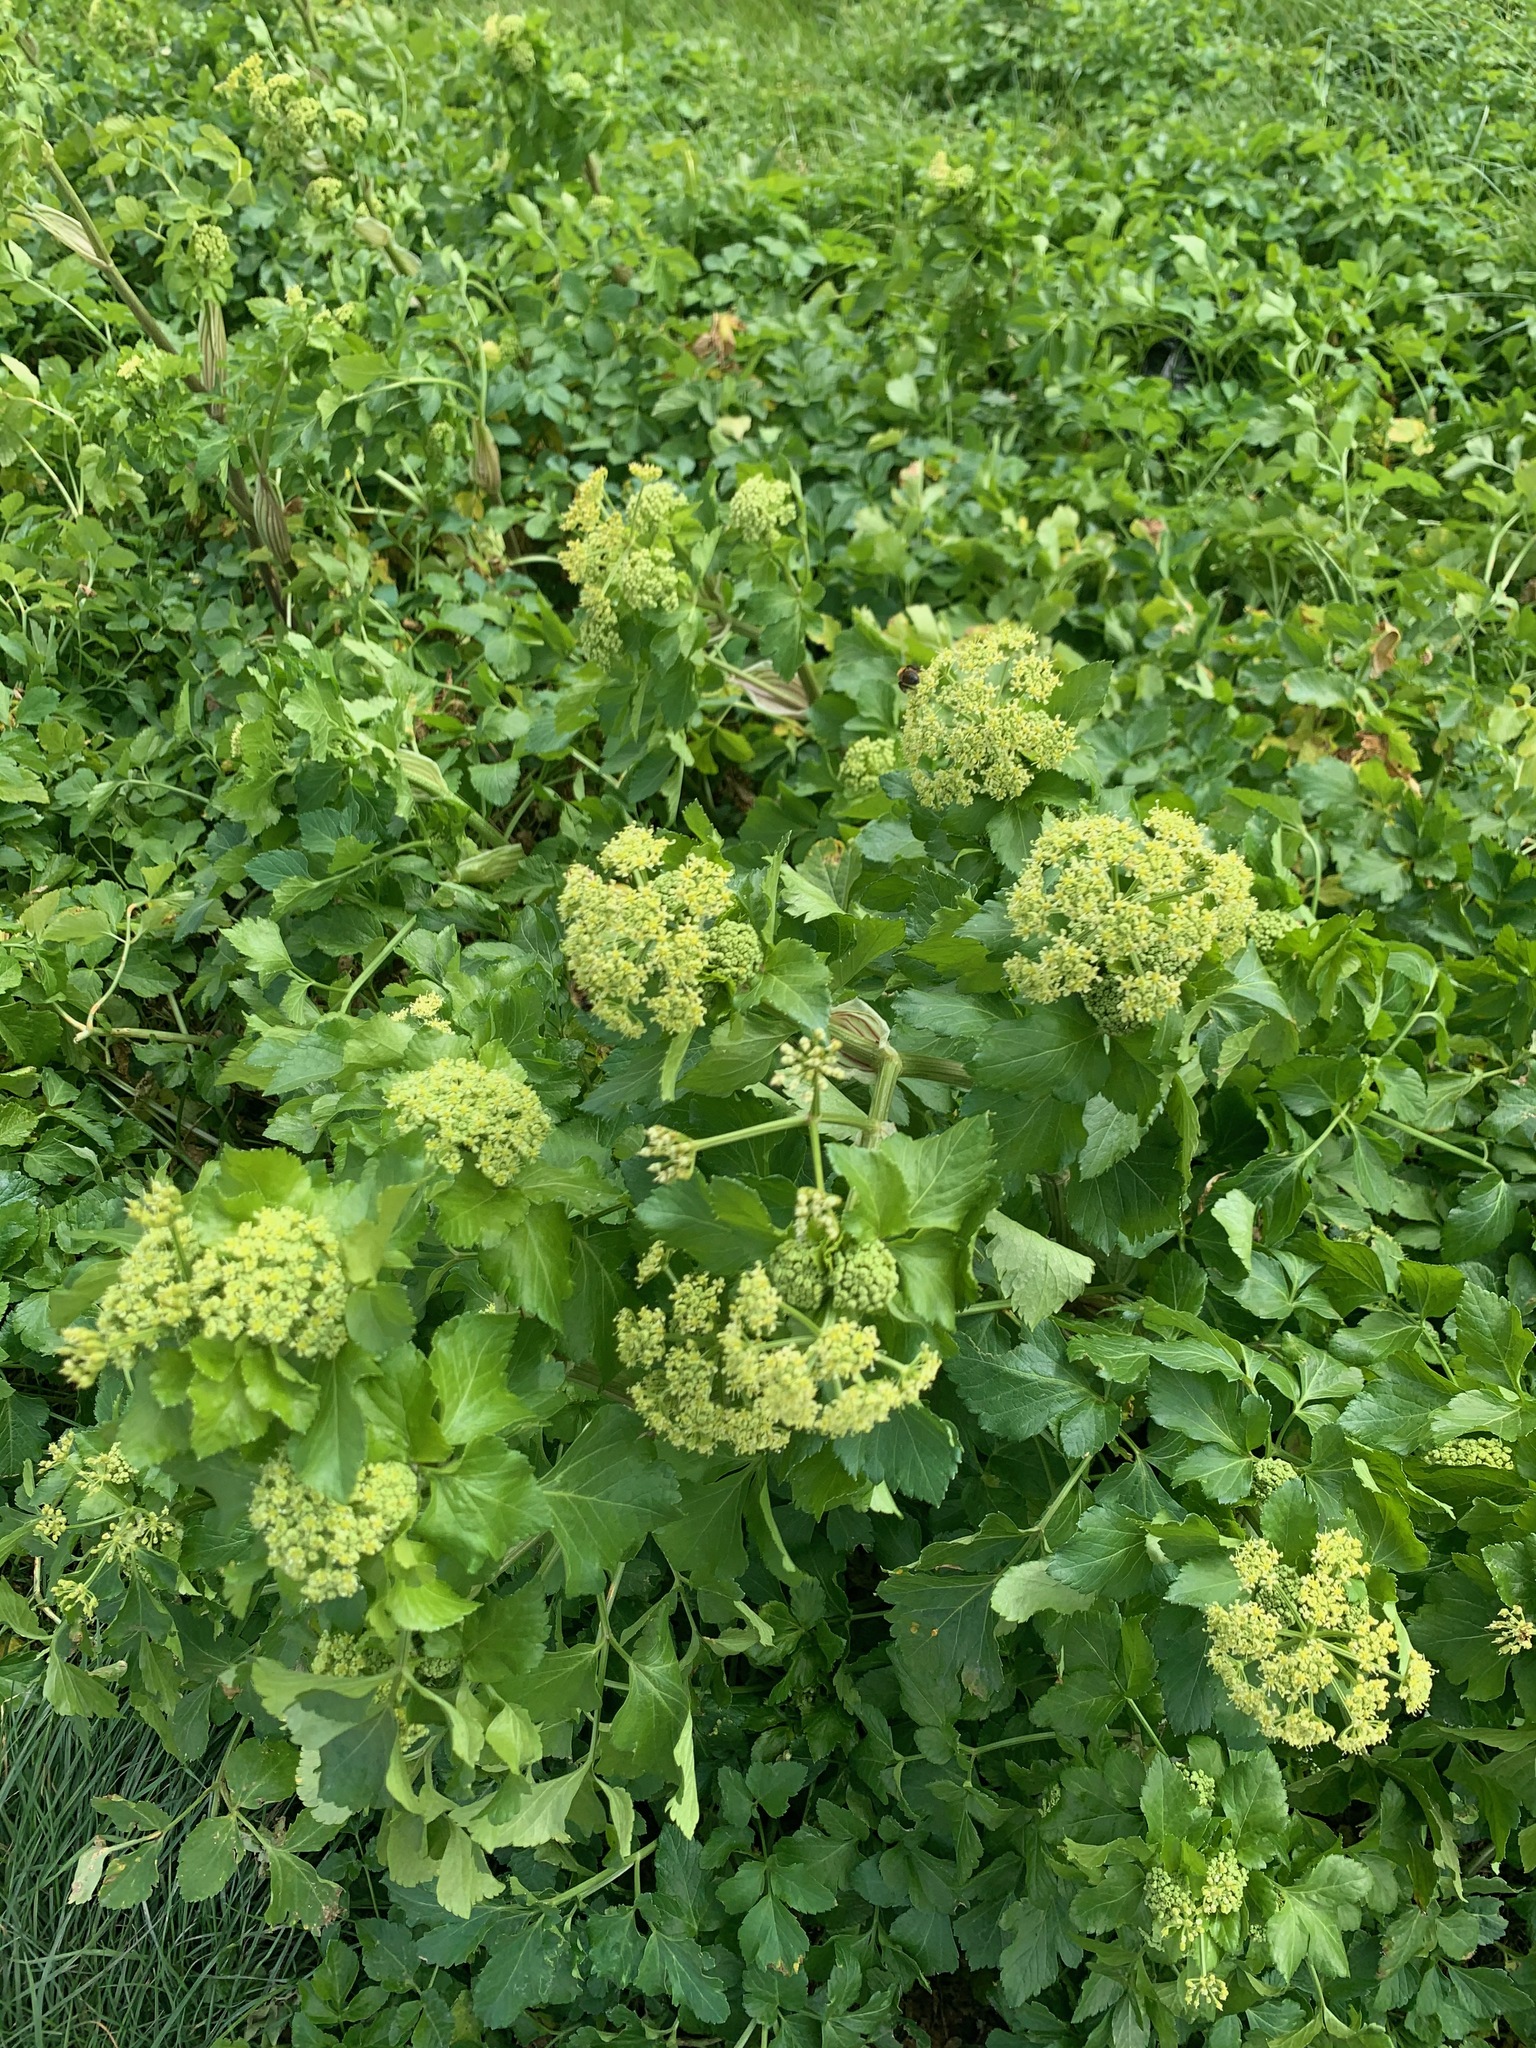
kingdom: Plantae
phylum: Tracheophyta
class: Magnoliopsida
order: Apiales
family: Apiaceae
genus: Smyrnium
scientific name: Smyrnium olusatrum
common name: Alexanders
